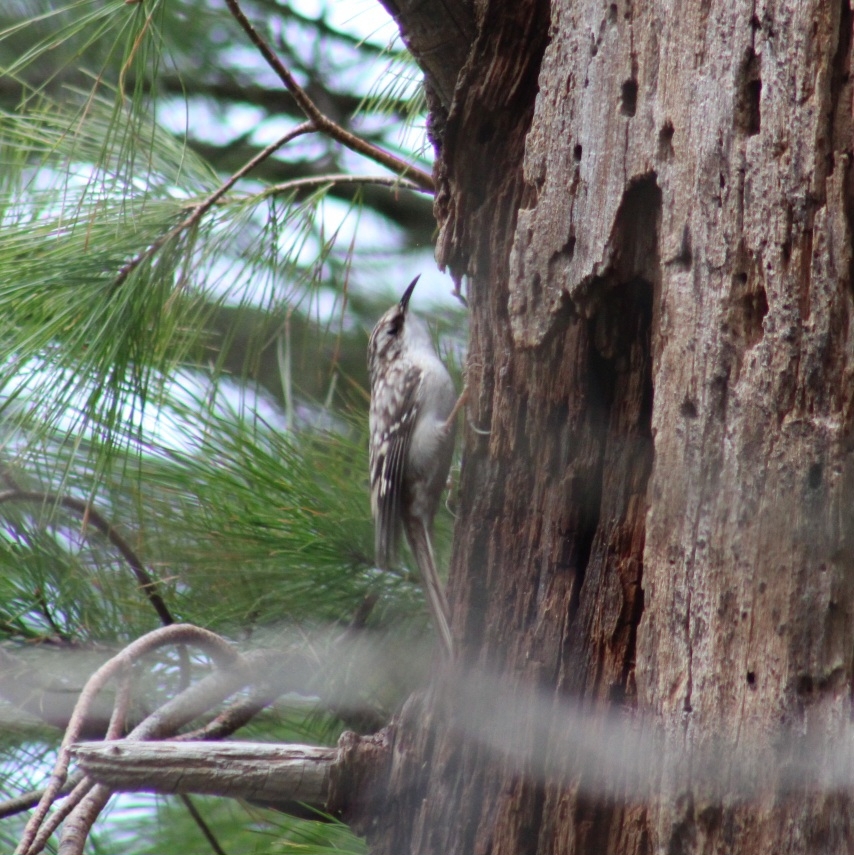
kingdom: Animalia
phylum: Chordata
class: Aves
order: Passeriformes
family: Certhiidae
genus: Certhia
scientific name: Certhia americana
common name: Brown creeper
